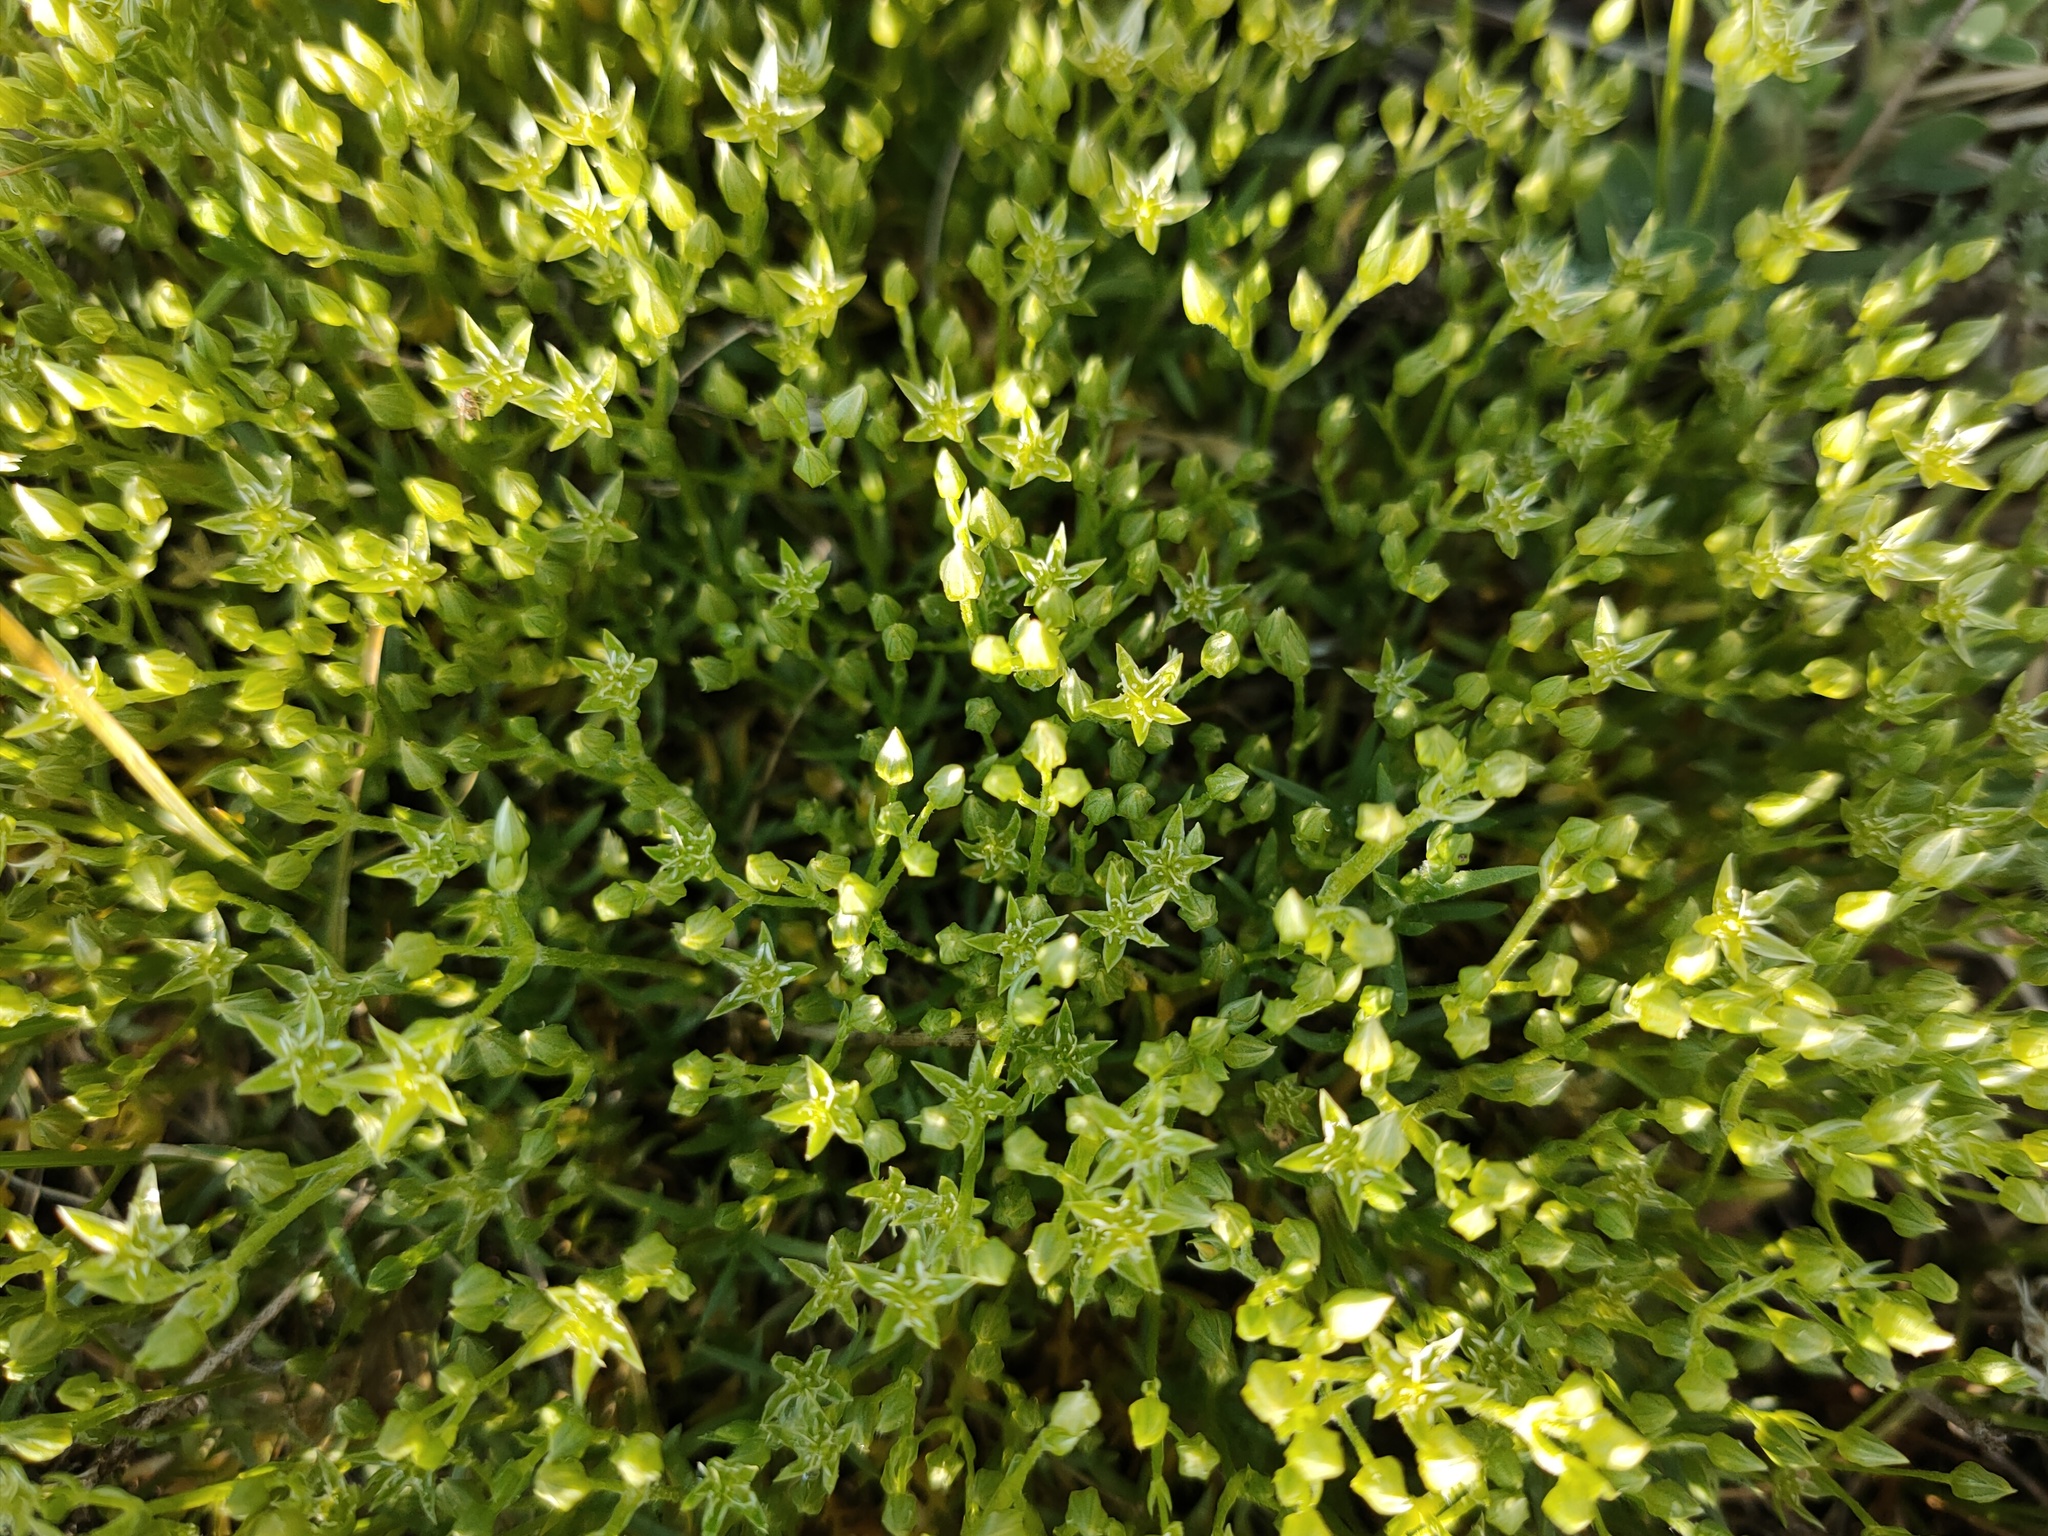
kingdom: Plantae
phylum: Tracheophyta
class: Magnoliopsida
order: Caryophyllales
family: Caryophyllaceae
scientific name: Caryophyllaceae
